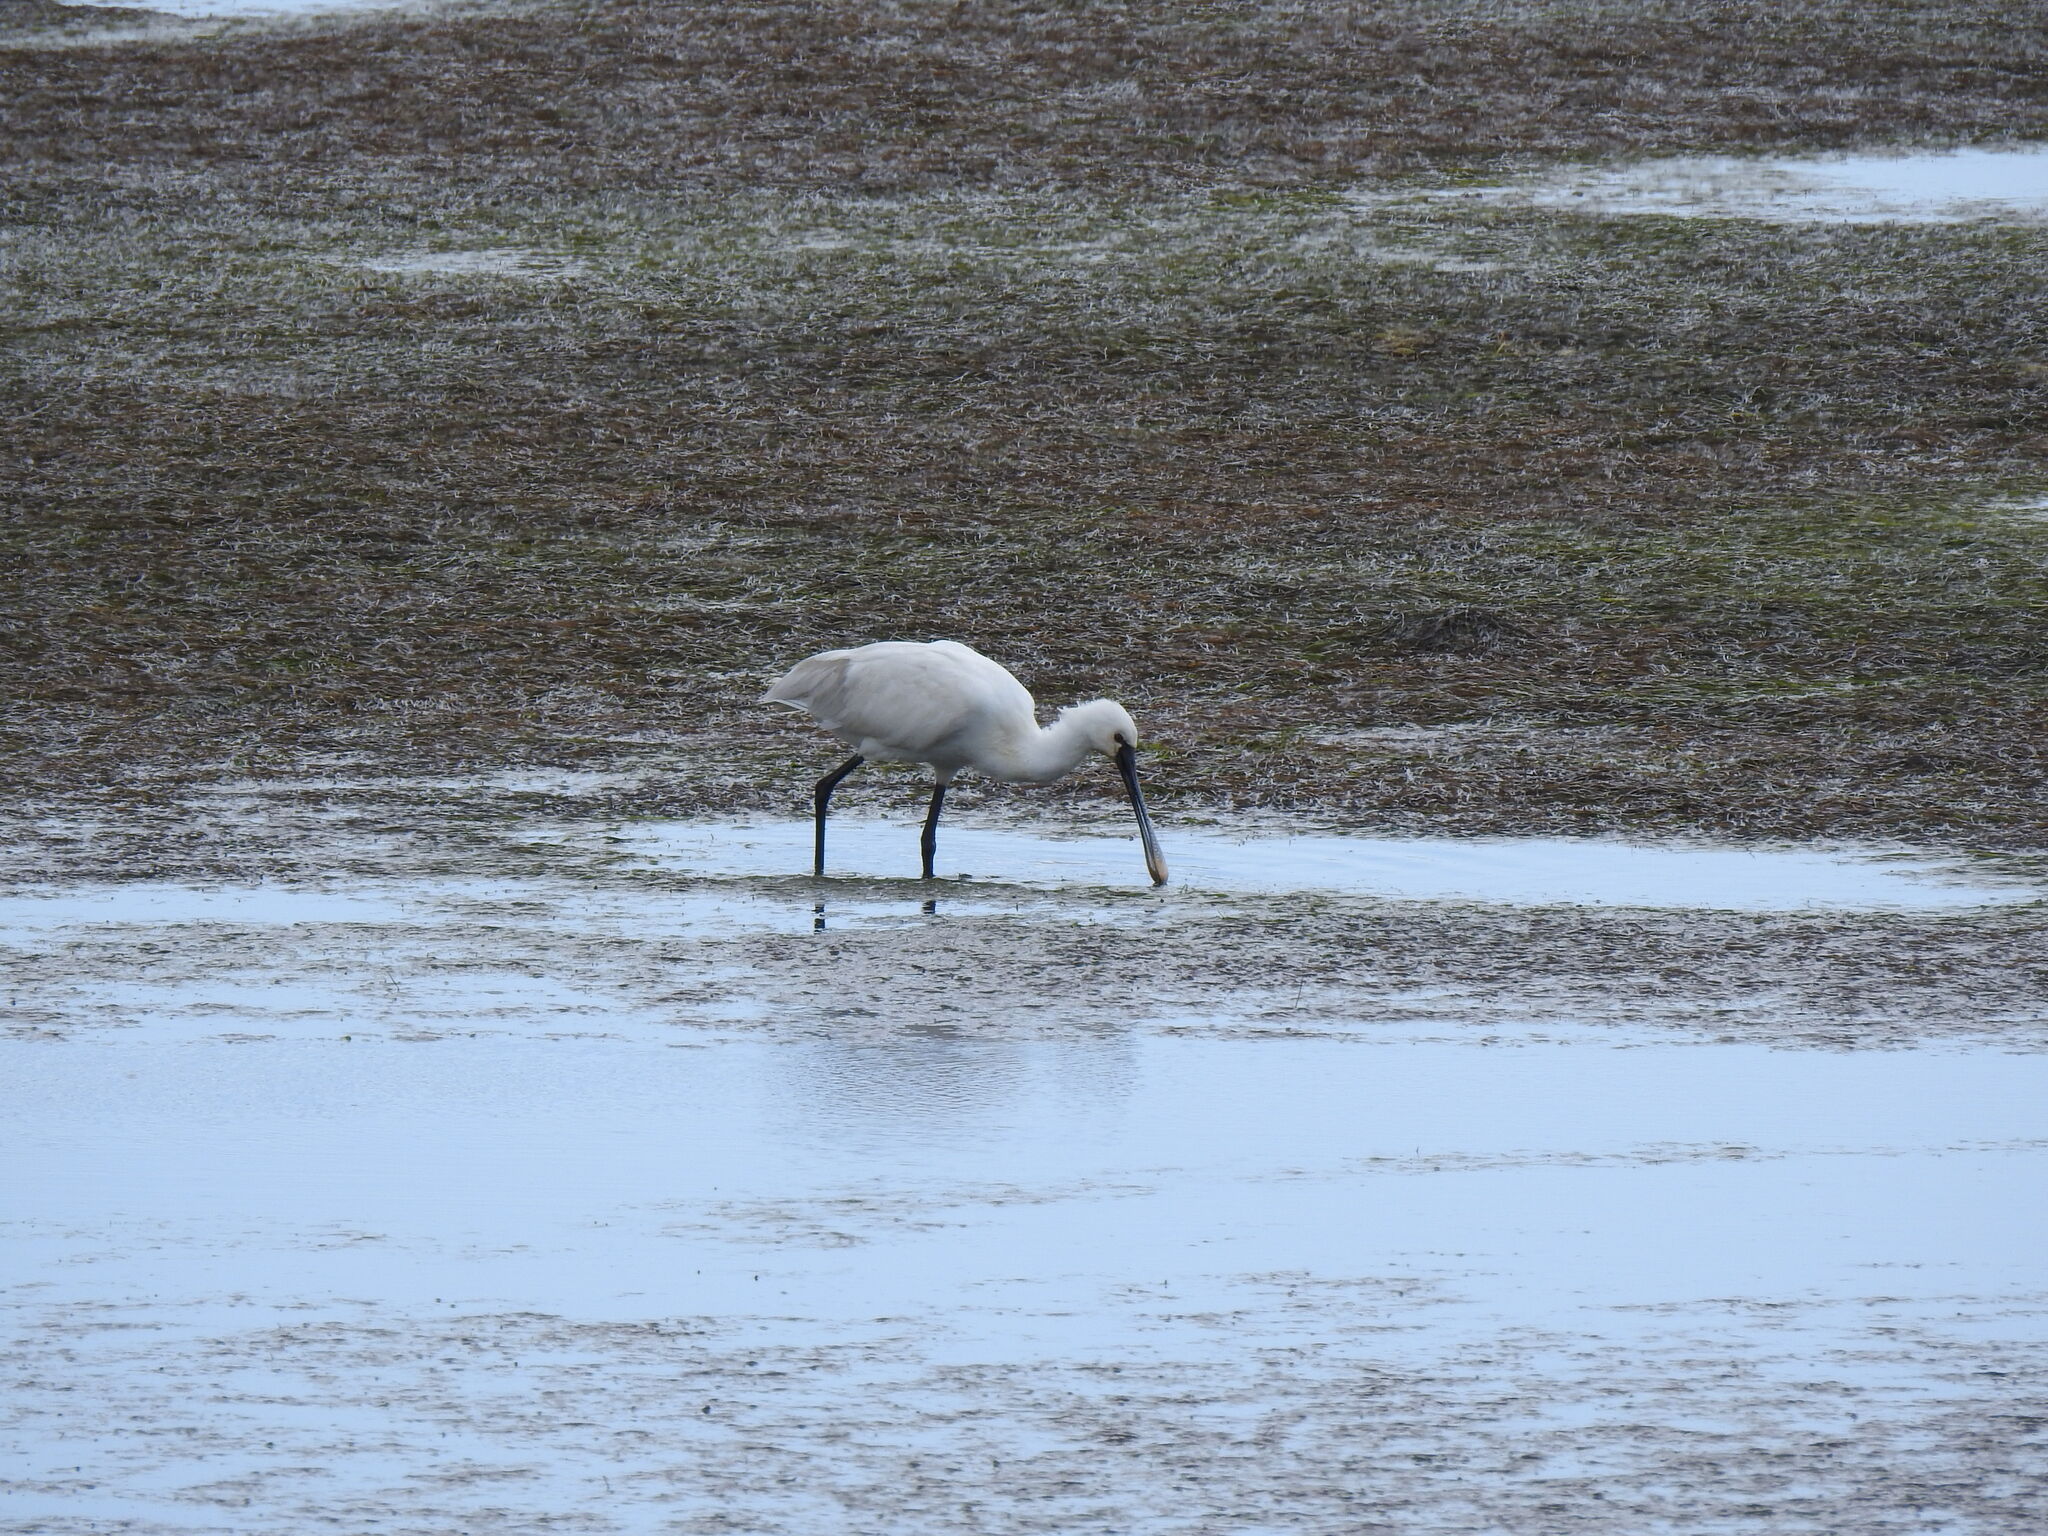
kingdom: Animalia
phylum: Chordata
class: Aves
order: Pelecaniformes
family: Threskiornithidae
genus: Platalea
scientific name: Platalea leucorodia
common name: Eurasian spoonbill
